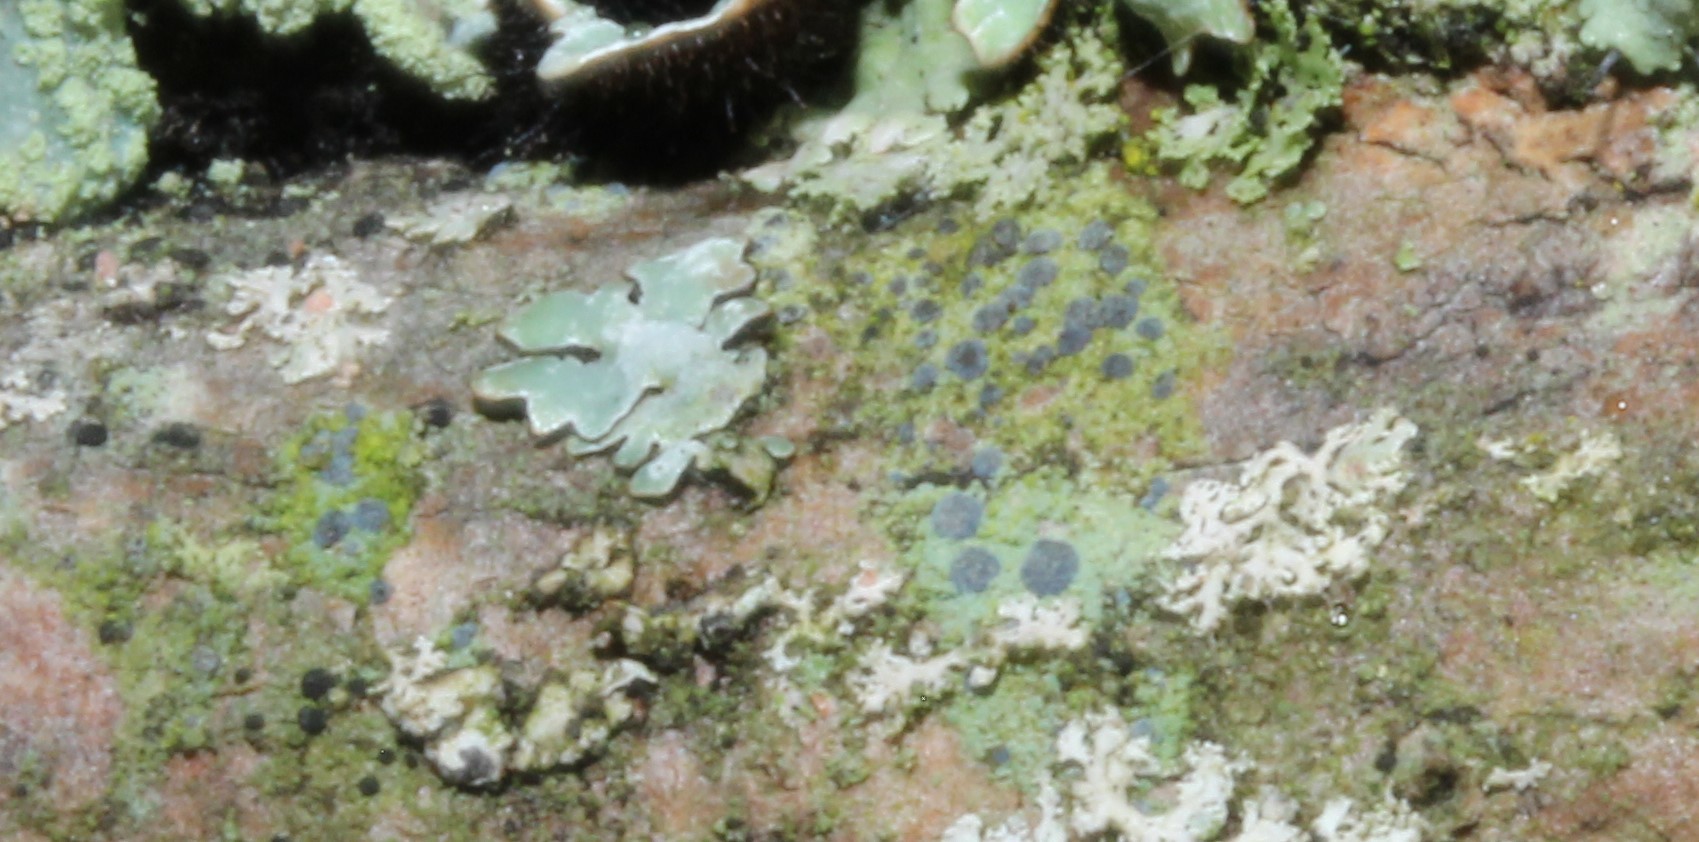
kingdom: Fungi
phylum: Ascomycota
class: Arthoniomycetes
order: Arthoniales
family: Chrysotrichaceae
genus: Chrysothrix
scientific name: Chrysothrix caesia
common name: Frosted comma lichen
